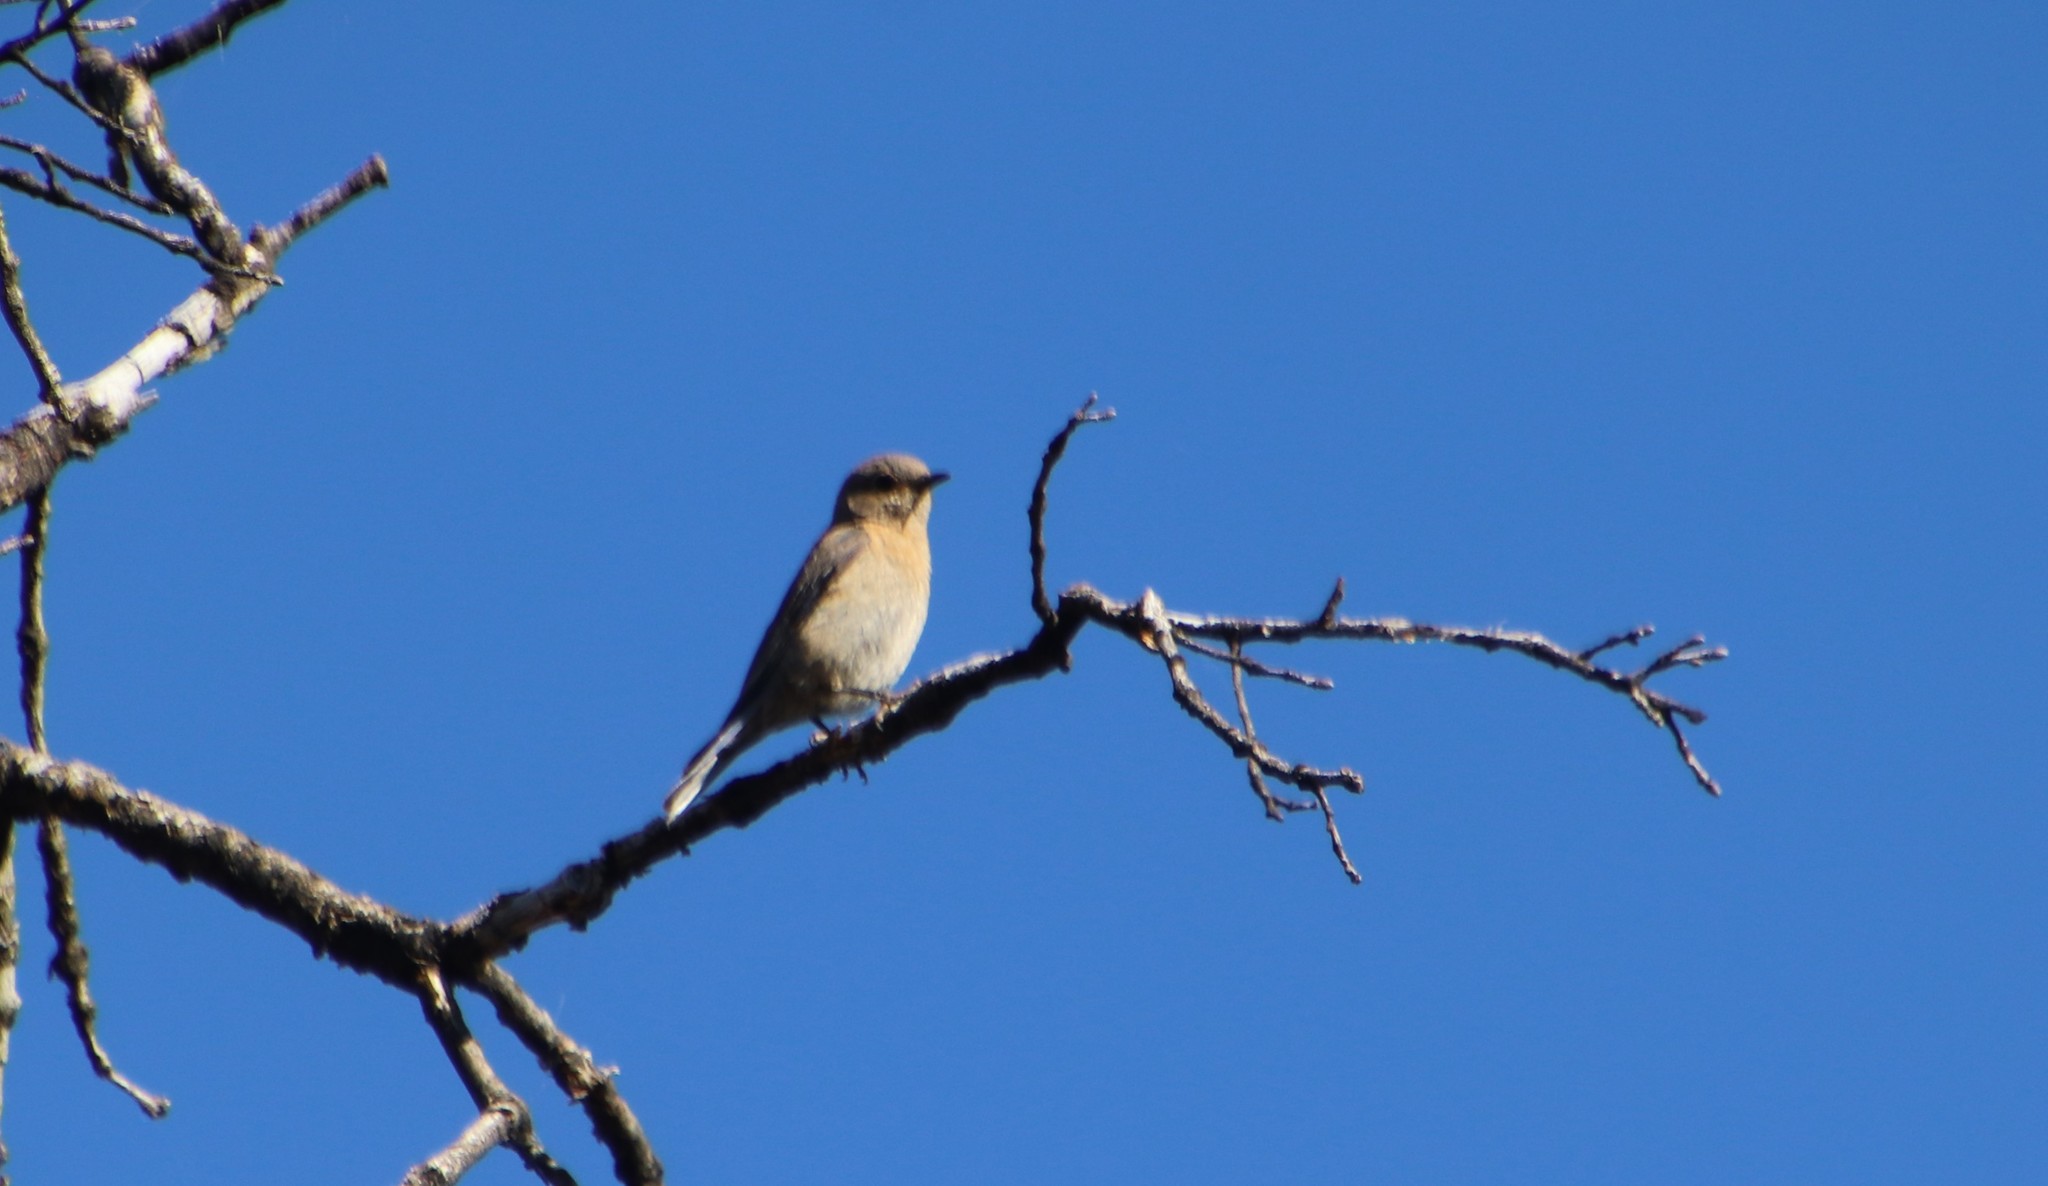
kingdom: Animalia
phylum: Chordata
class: Aves
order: Passeriformes
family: Turdidae
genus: Sialia
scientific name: Sialia mexicana
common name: Western bluebird
